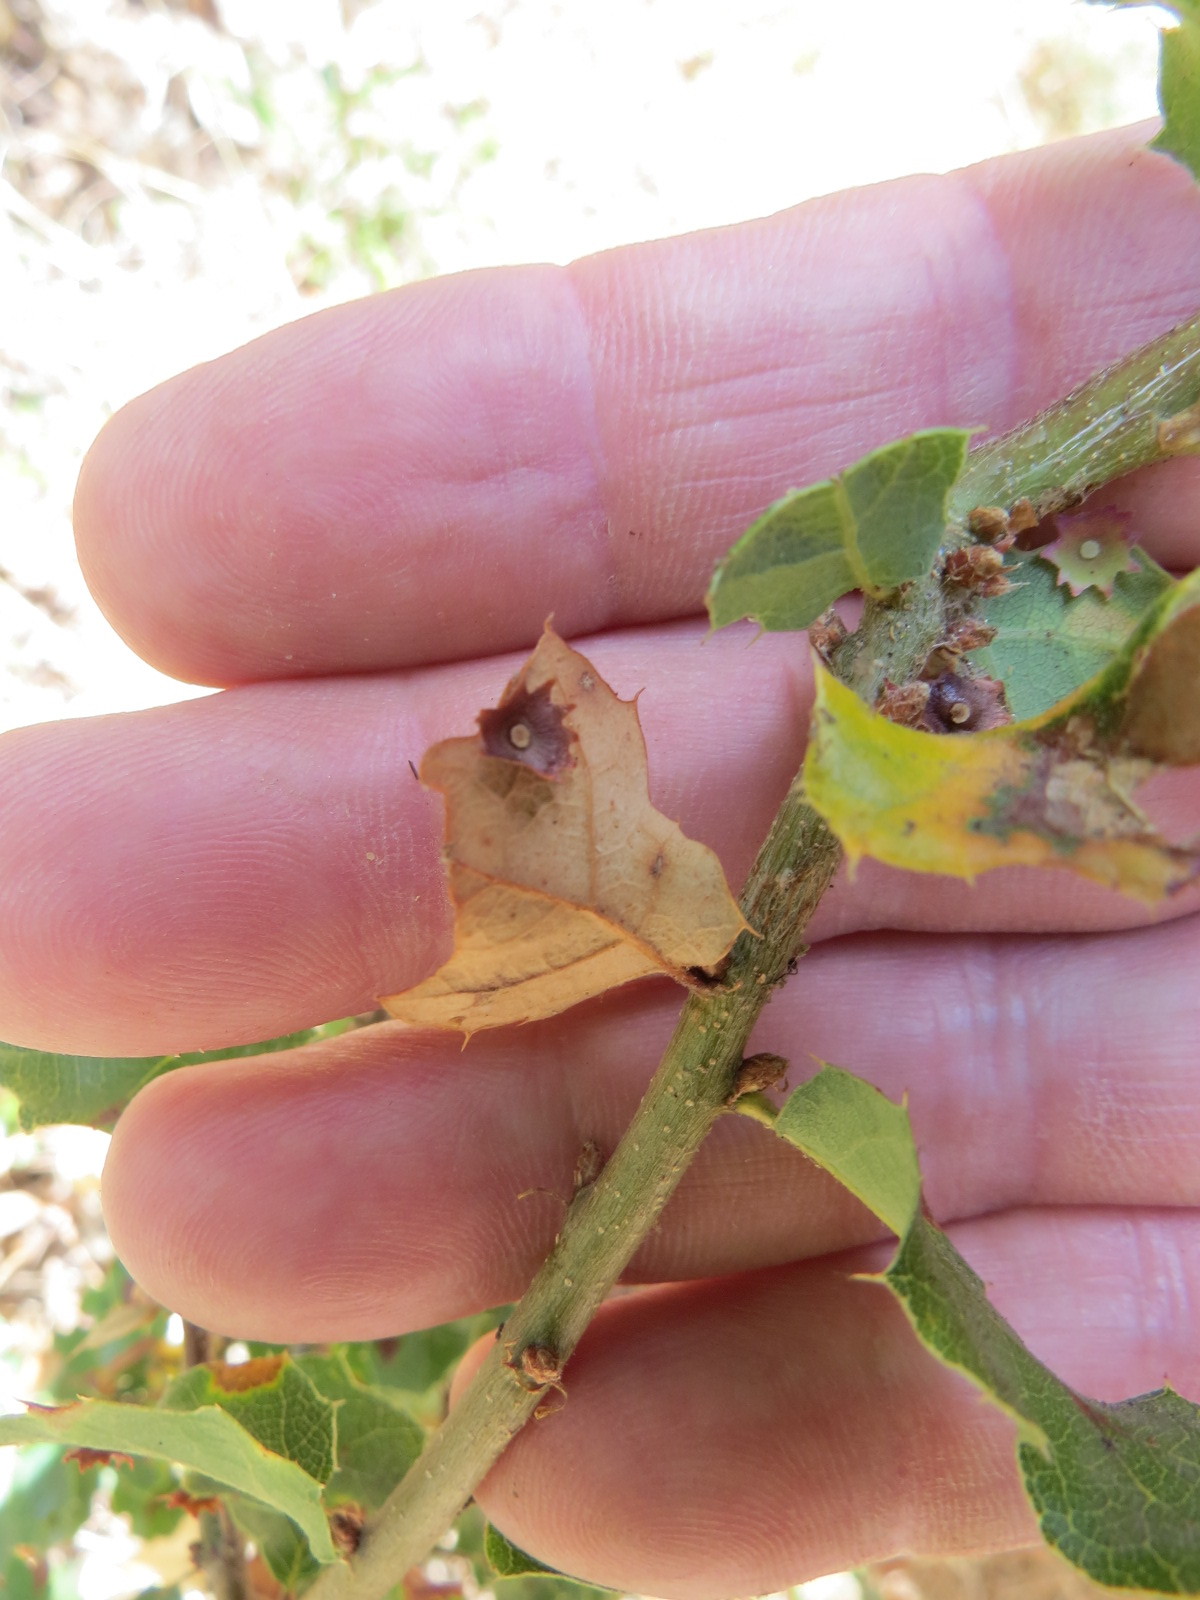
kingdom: Animalia
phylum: Arthropoda
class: Insecta
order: Hymenoptera
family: Cynipidae
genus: Andricus
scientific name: Andricus
